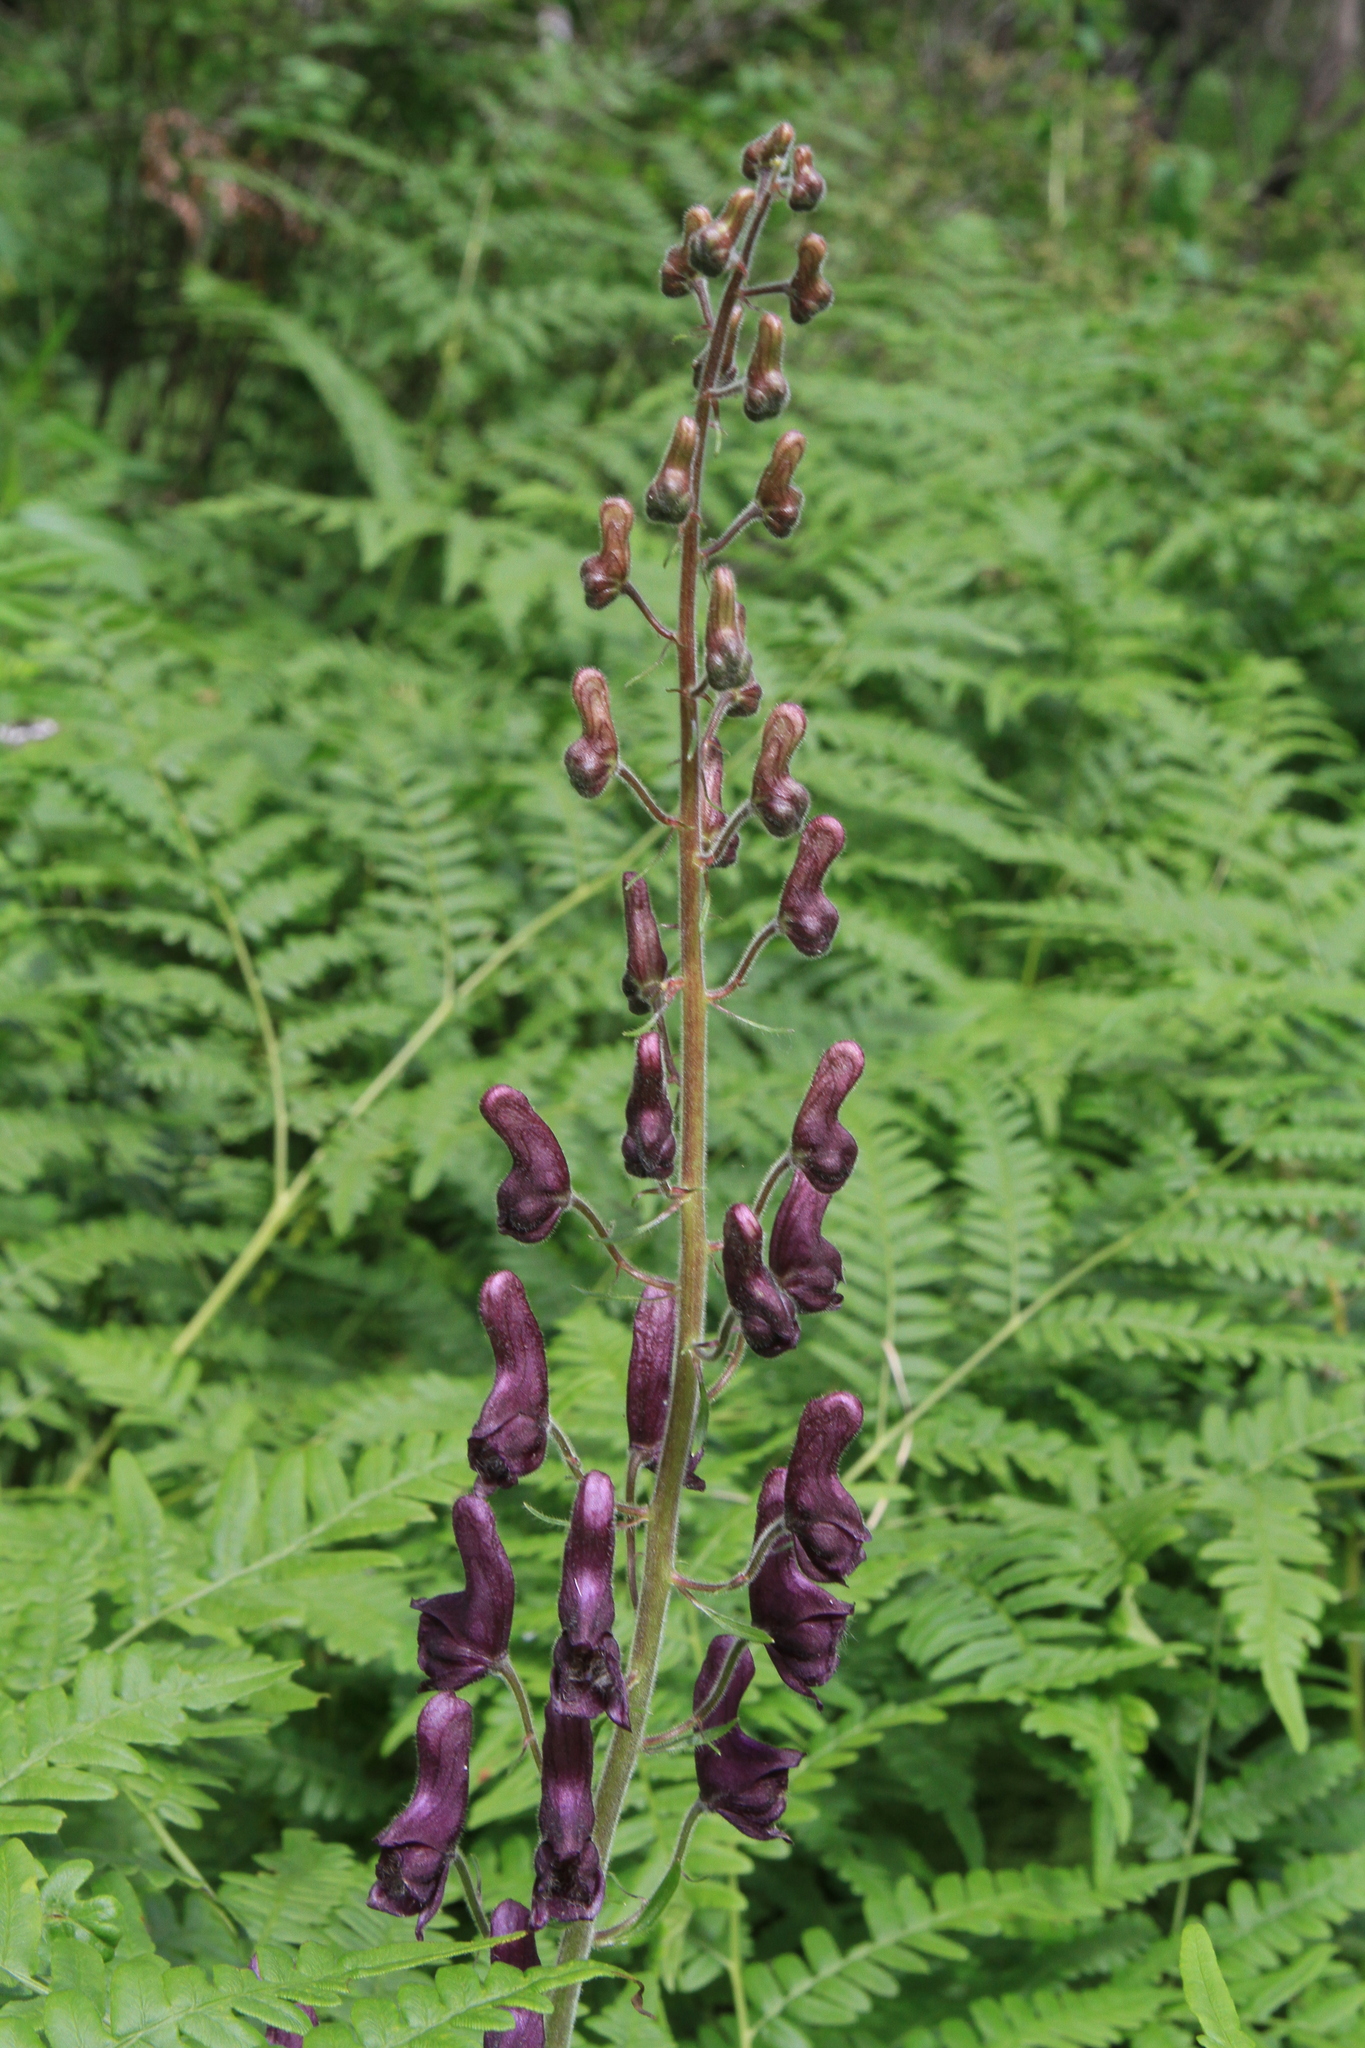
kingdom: Plantae
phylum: Tracheophyta
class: Magnoliopsida
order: Ranunculales
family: Ranunculaceae
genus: Aconitum
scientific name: Aconitum septentrionale
